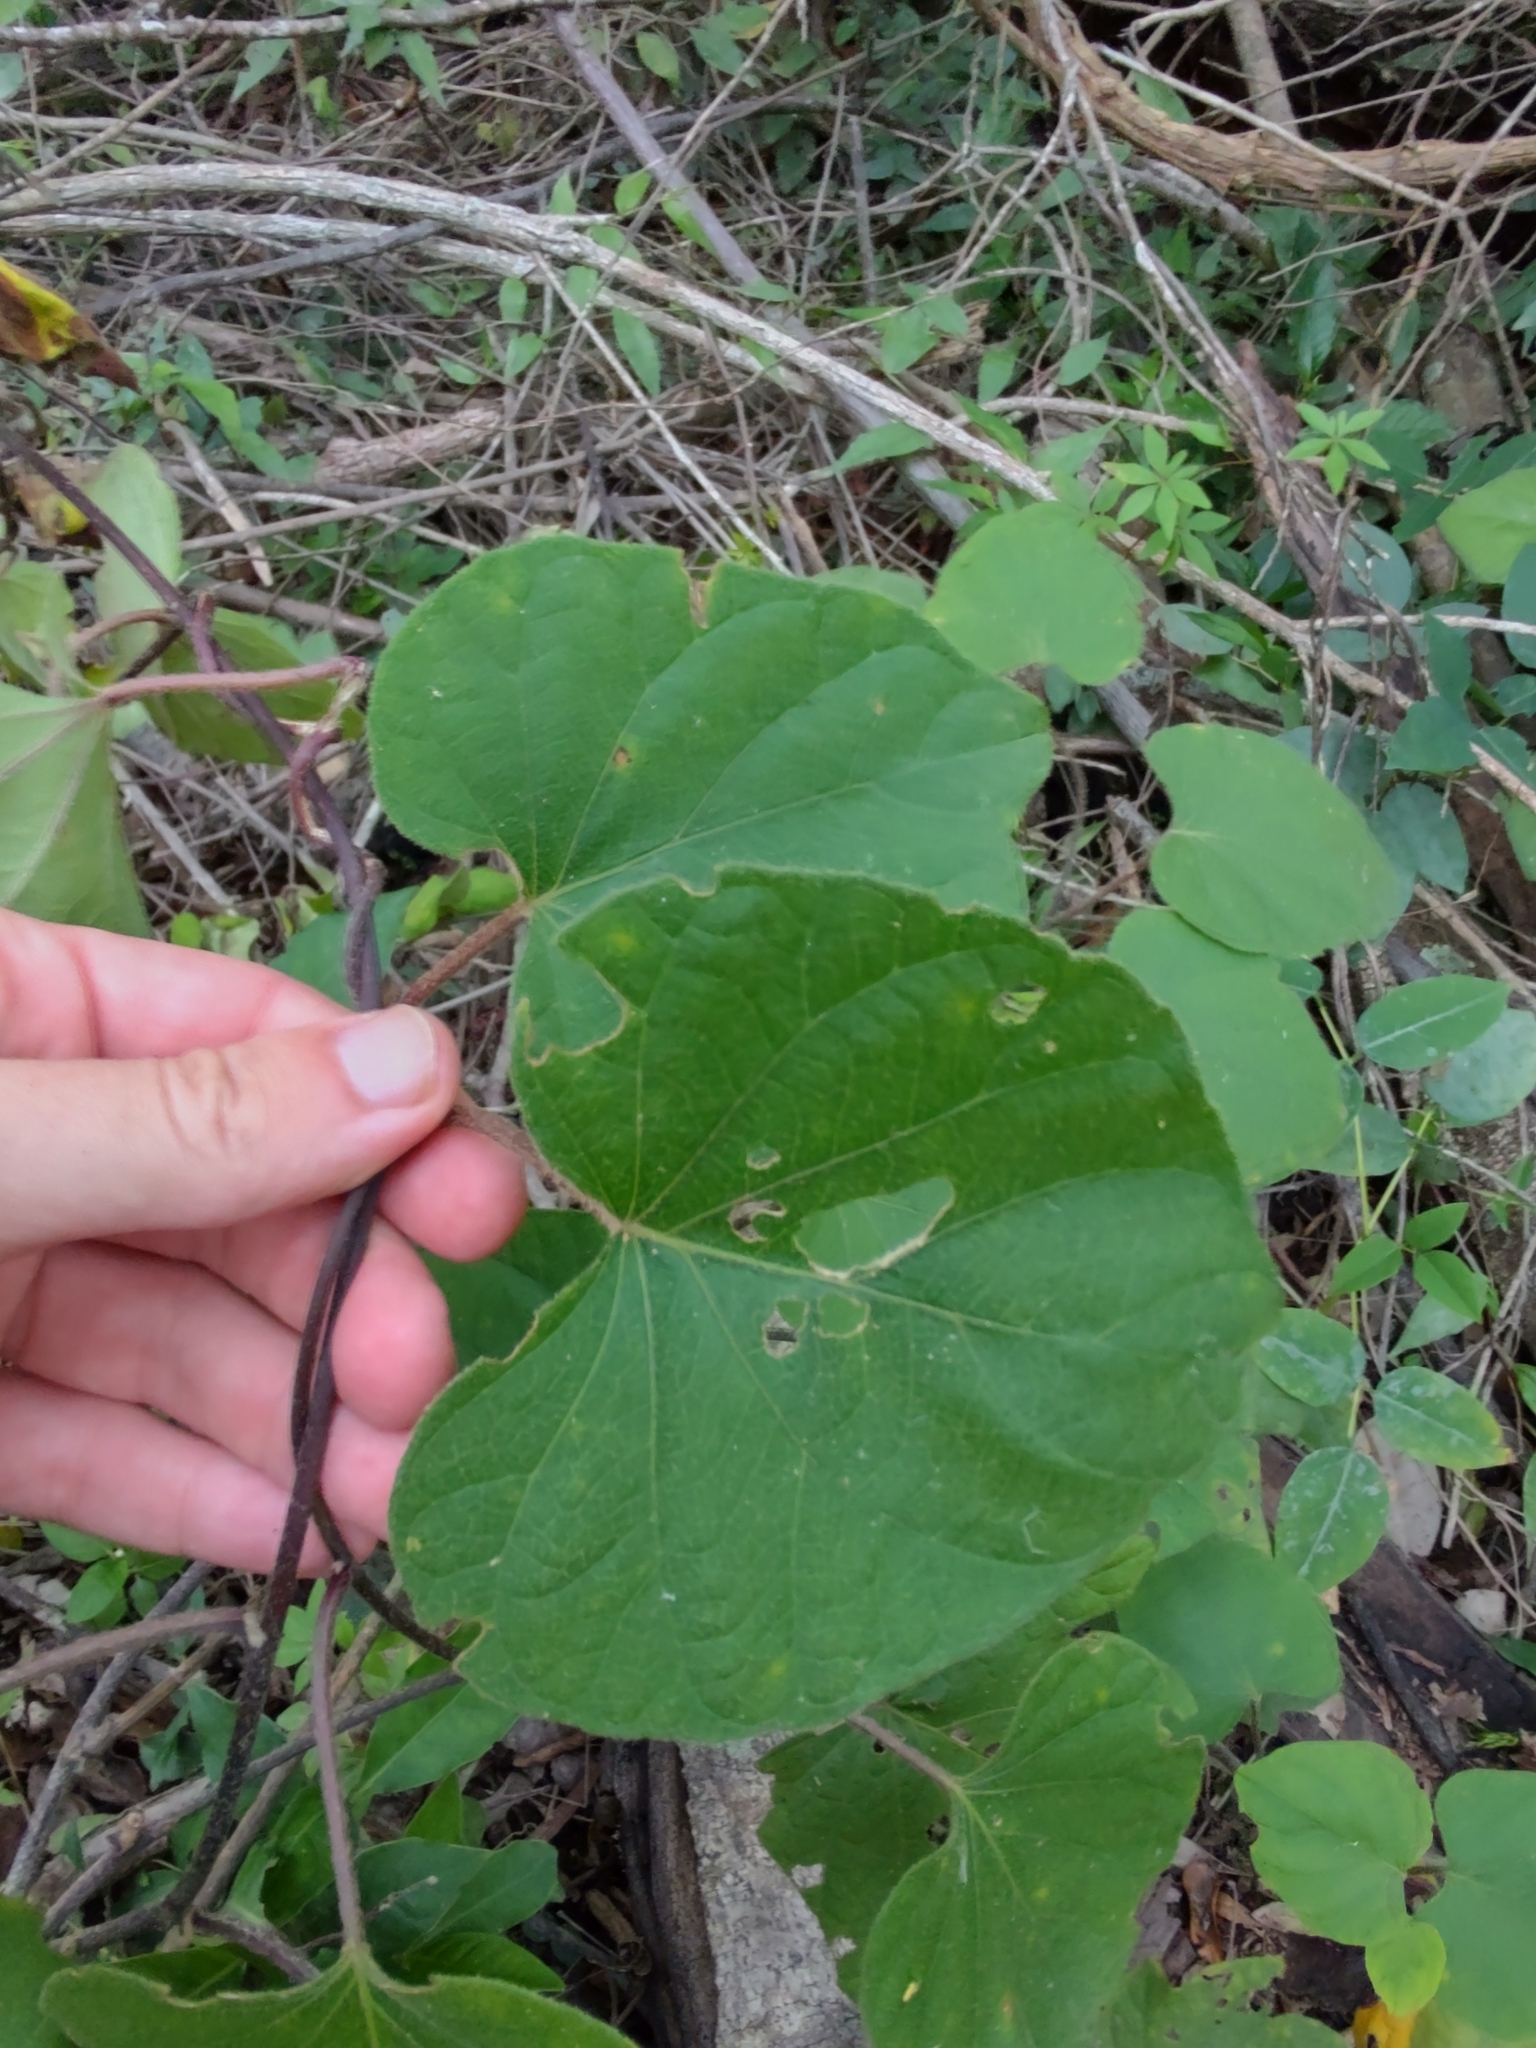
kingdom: Plantae
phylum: Tracheophyta
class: Magnoliopsida
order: Ranunculales
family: Menispermaceae
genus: Cissampelos
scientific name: Cissampelos pareira
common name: Velvetleaf
